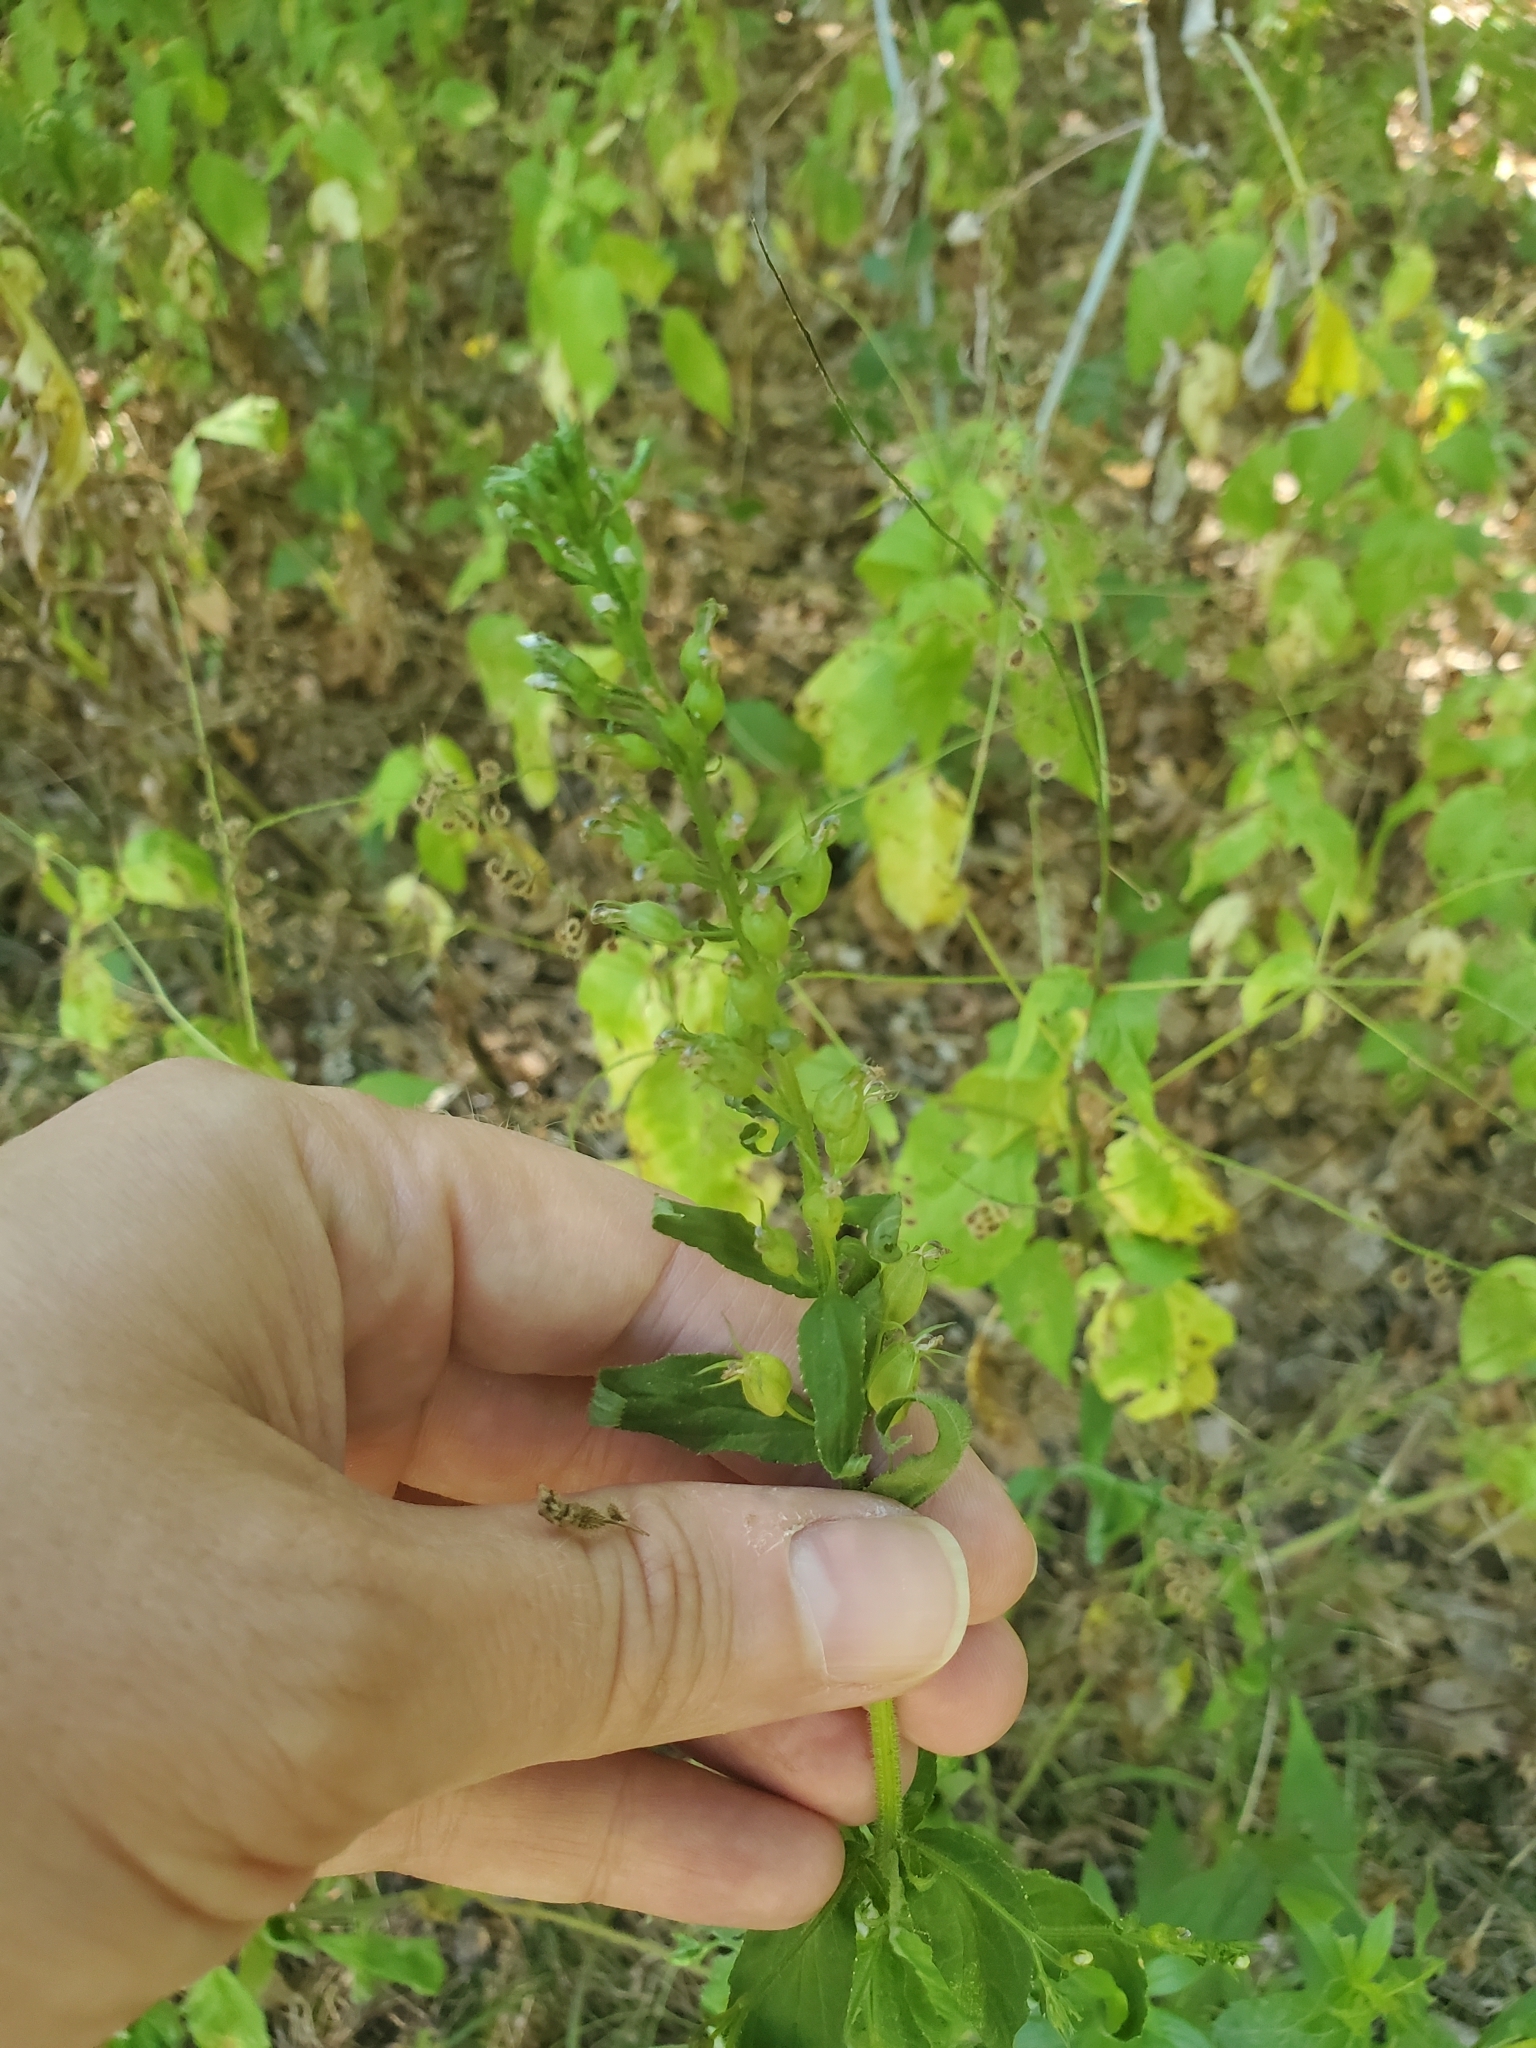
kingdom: Plantae
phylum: Tracheophyta
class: Magnoliopsida
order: Asterales
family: Campanulaceae
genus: Lobelia
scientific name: Lobelia inflata
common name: Indian tobacco
